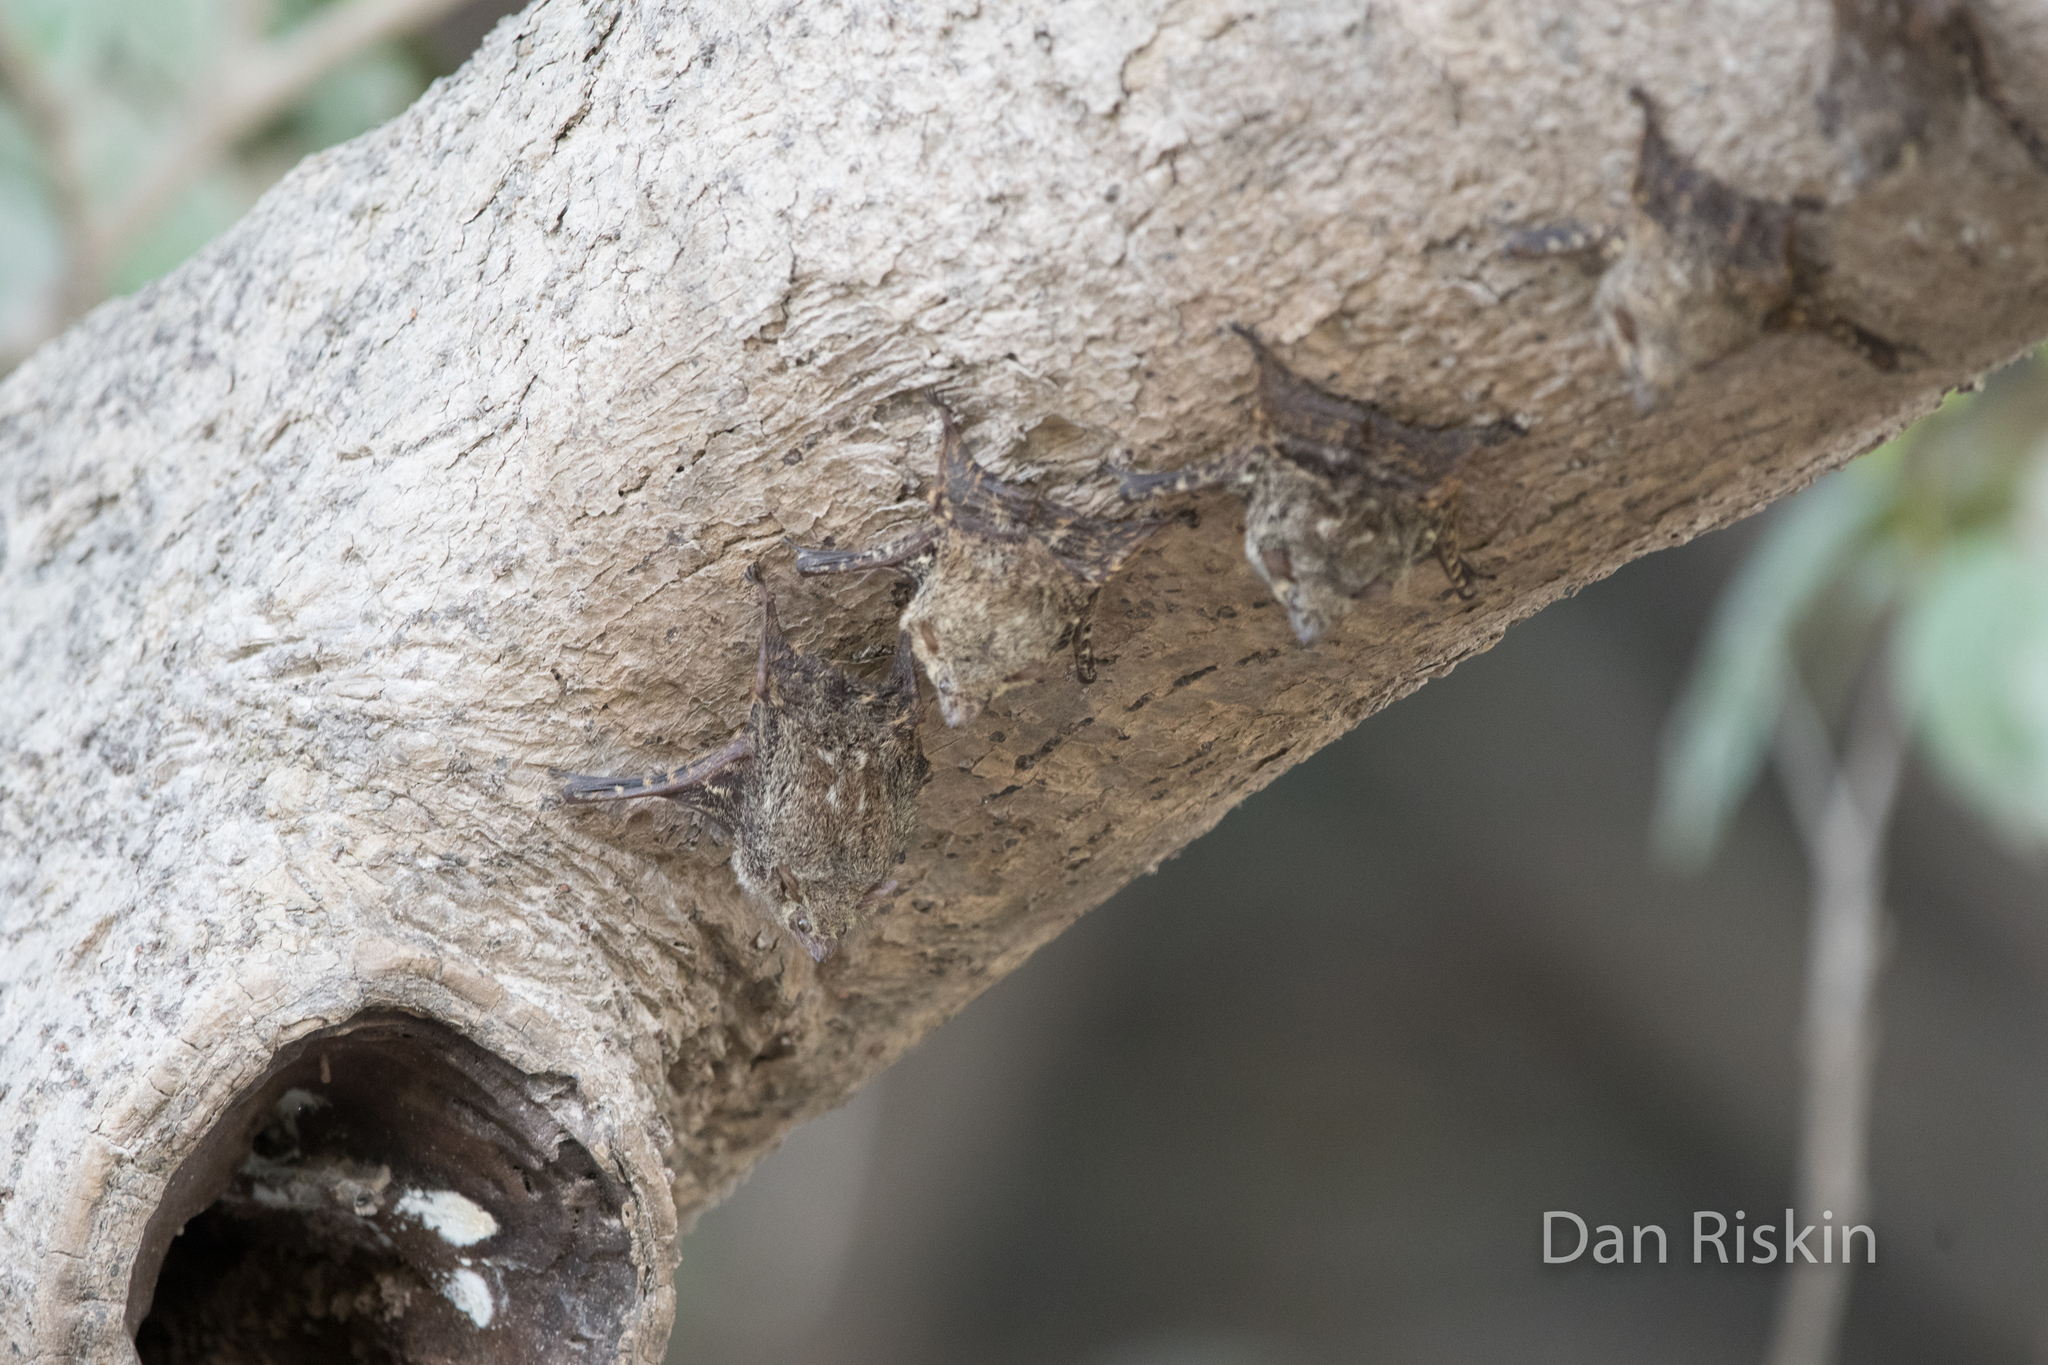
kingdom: Animalia
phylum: Chordata
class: Mammalia
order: Chiroptera
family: Emballonuridae
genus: Rhynchonycteris
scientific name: Rhynchonycteris naso
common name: Proboscis bat
